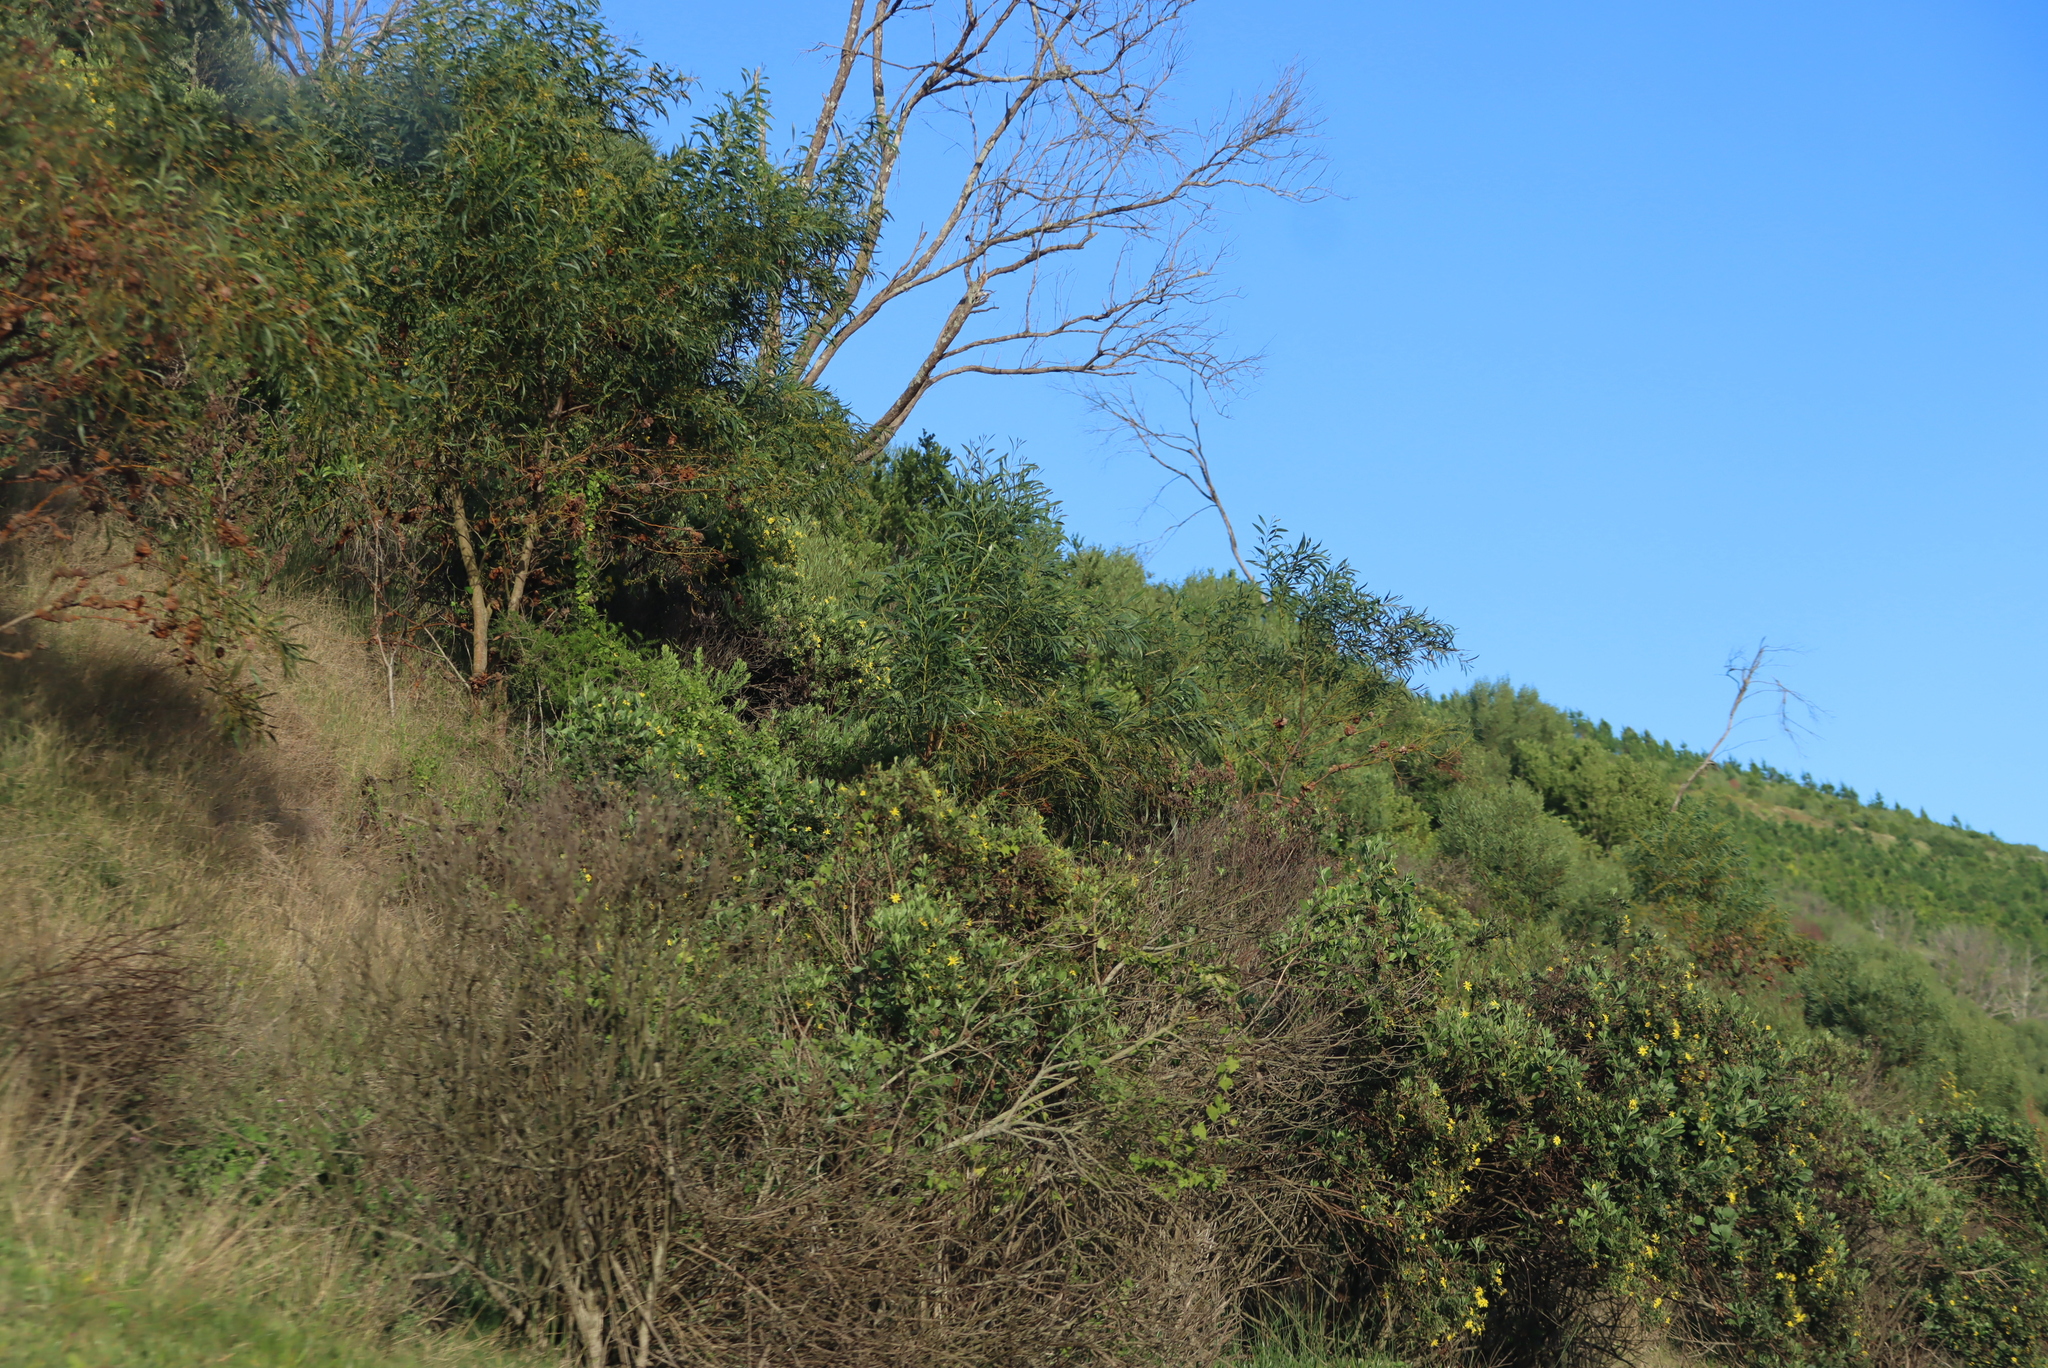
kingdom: Plantae
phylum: Tracheophyta
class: Magnoliopsida
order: Fabales
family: Fabaceae
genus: Acacia
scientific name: Acacia saligna
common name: Orange wattle
